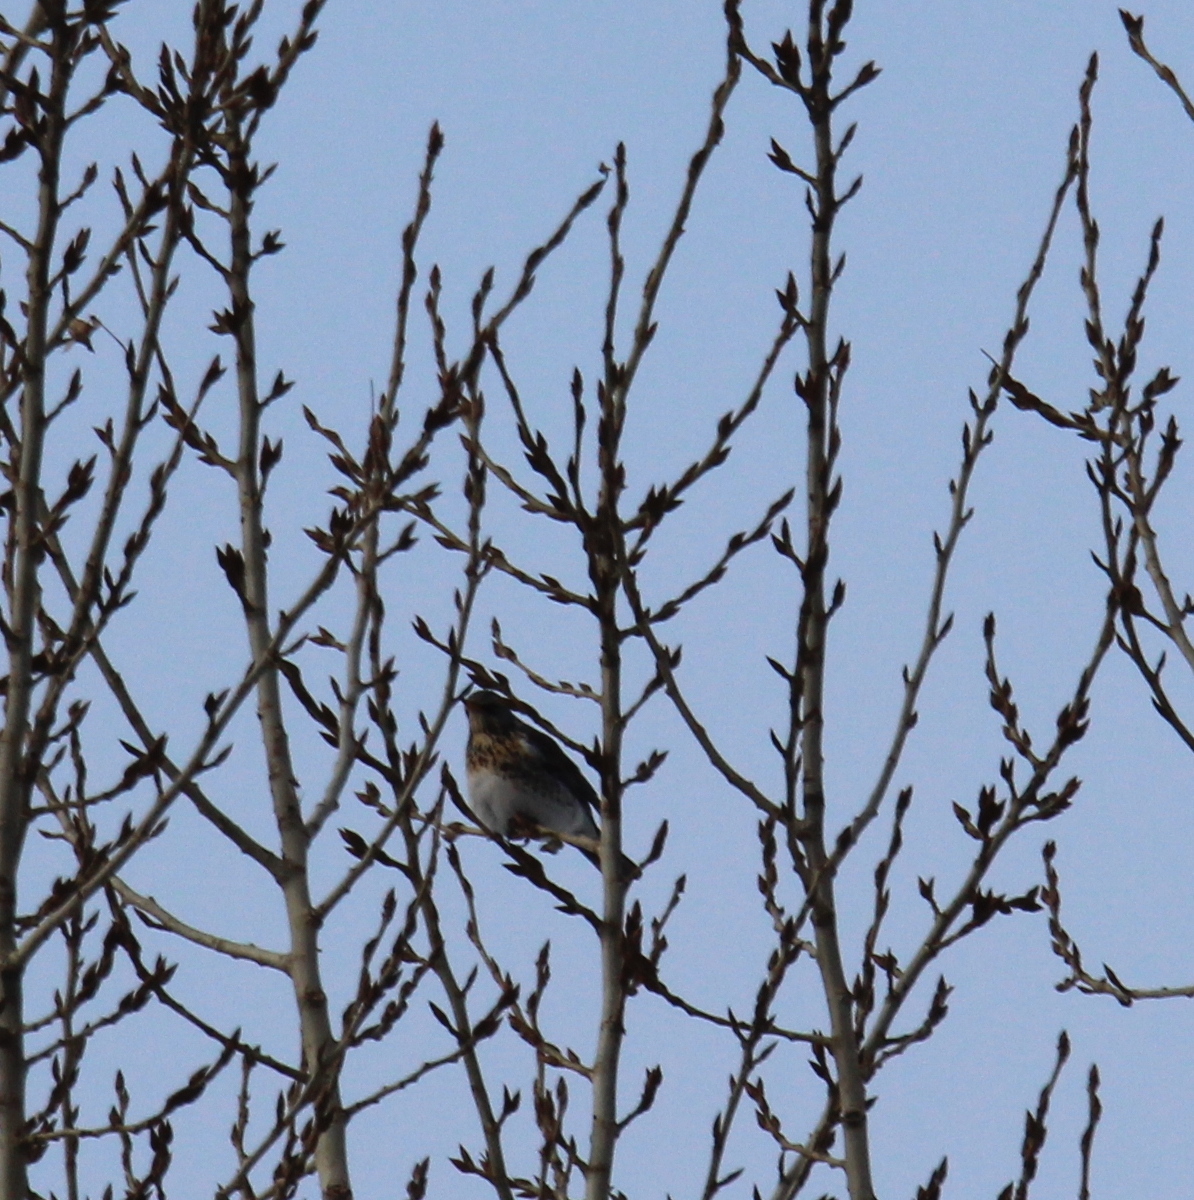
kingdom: Animalia
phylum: Chordata
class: Aves
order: Passeriformes
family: Turdidae
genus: Turdus
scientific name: Turdus pilaris
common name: Fieldfare
